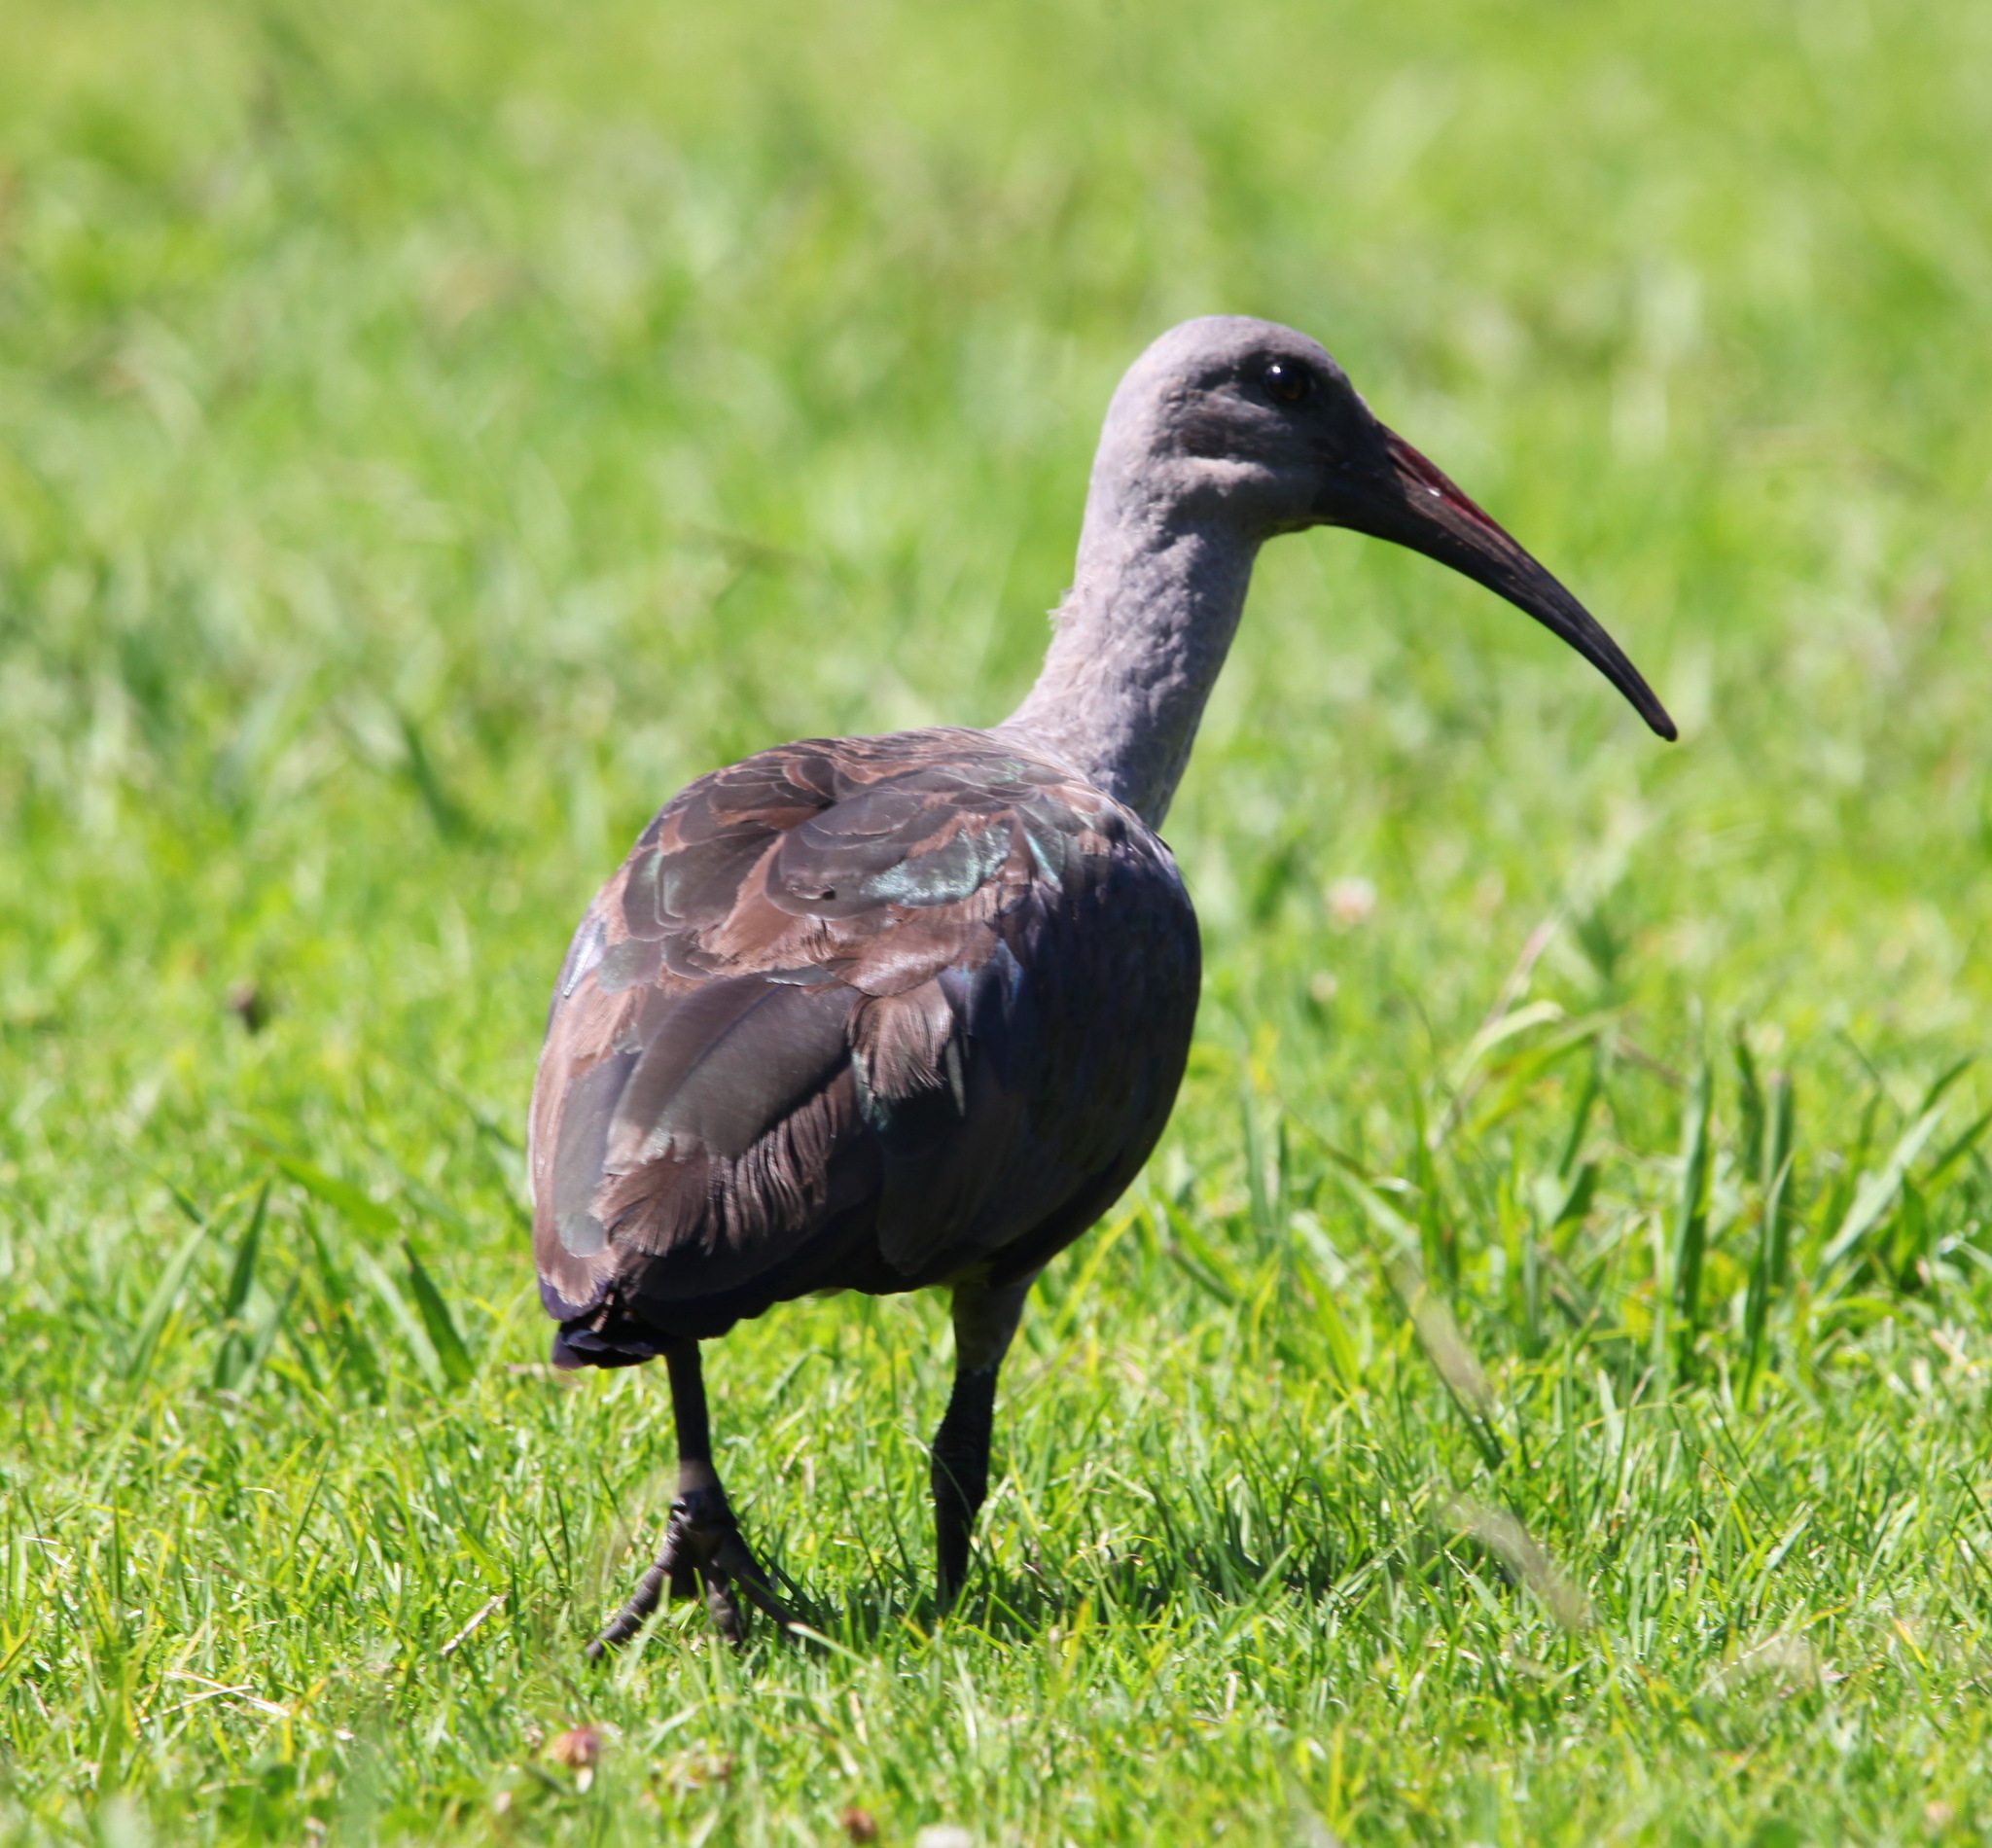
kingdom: Animalia
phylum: Chordata
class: Aves
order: Pelecaniformes
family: Threskiornithidae
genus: Bostrychia
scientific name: Bostrychia hagedash
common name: Hadada ibis
